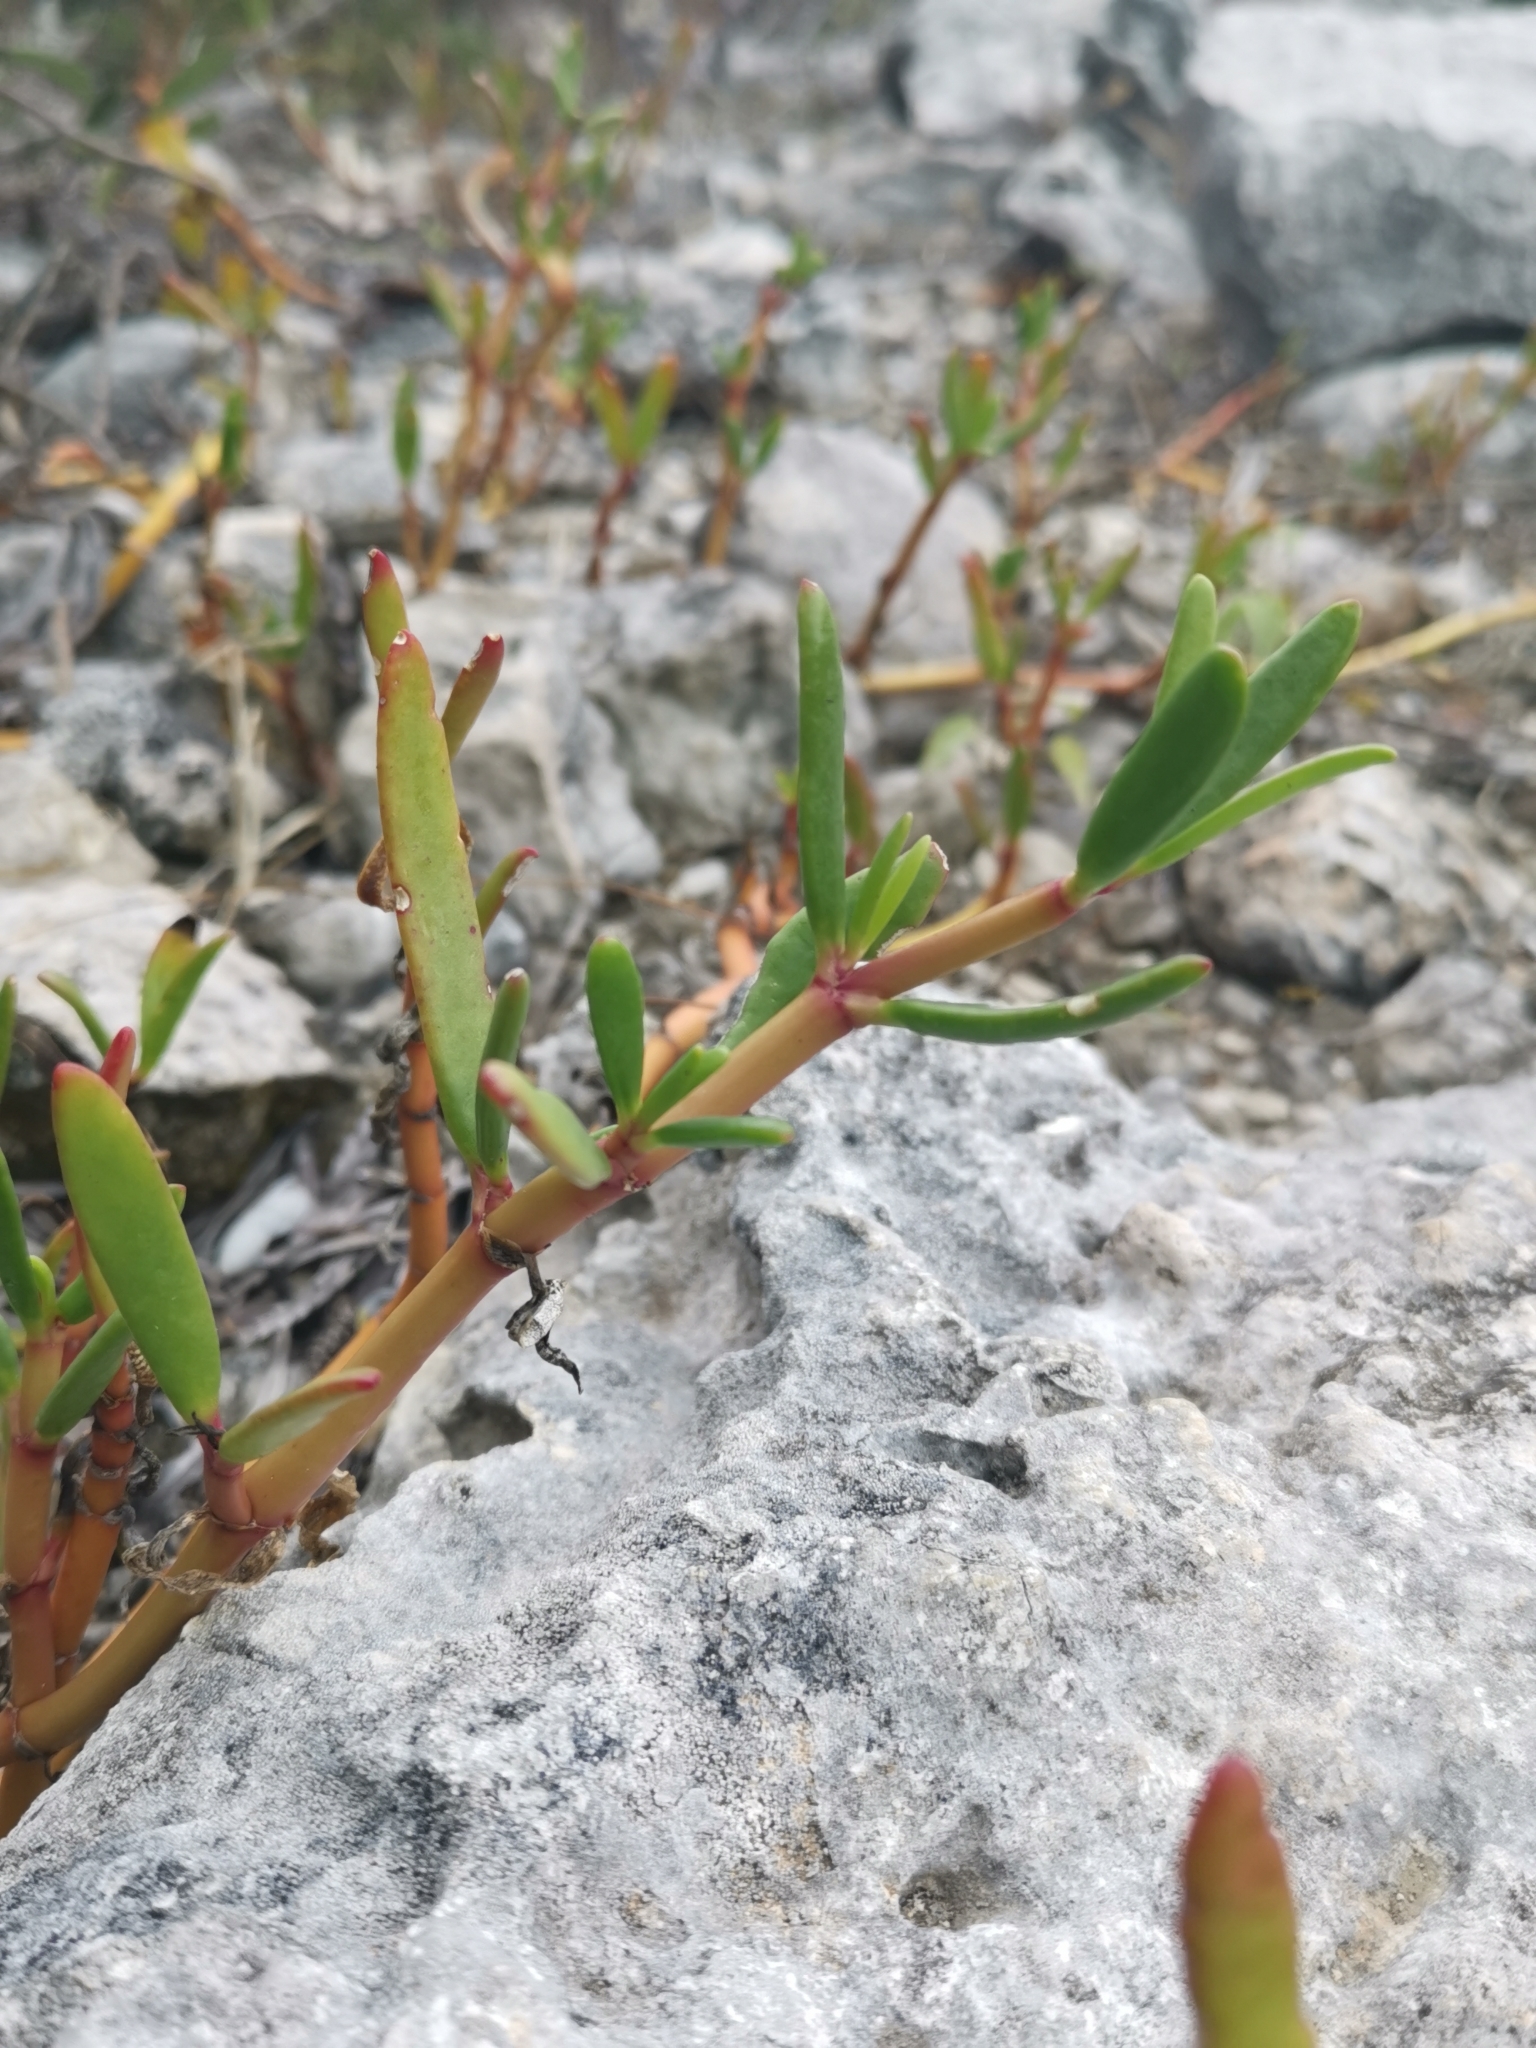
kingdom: Plantae
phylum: Tracheophyta
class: Magnoliopsida
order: Caryophyllales
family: Aizoaceae
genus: Sesuvium
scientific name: Sesuvium portulacastrum
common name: Sea-purslane
